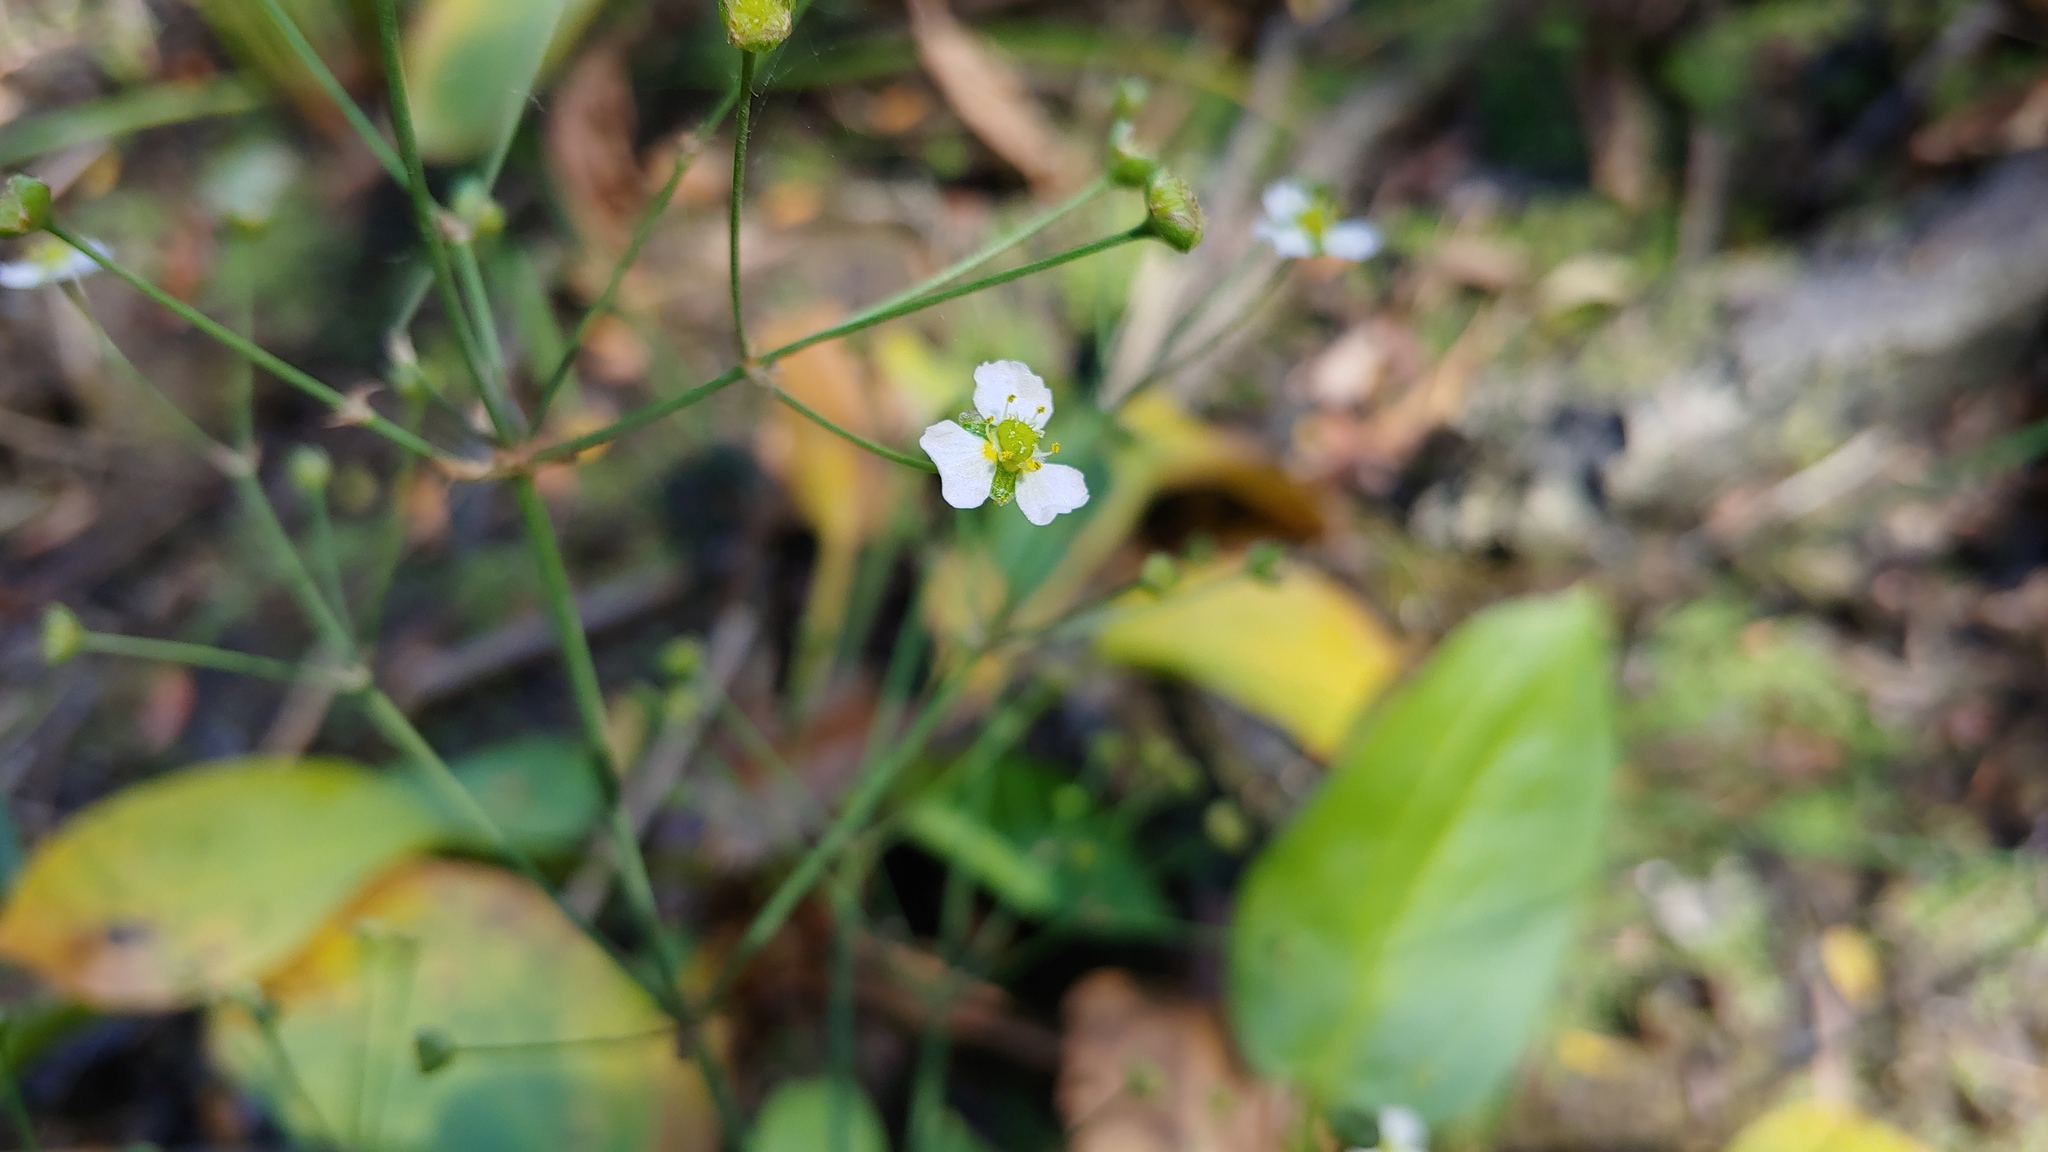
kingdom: Plantae
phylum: Tracheophyta
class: Liliopsida
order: Alismatales
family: Alismataceae
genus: Alisma
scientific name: Alisma triviale
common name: Northern water-plantain
